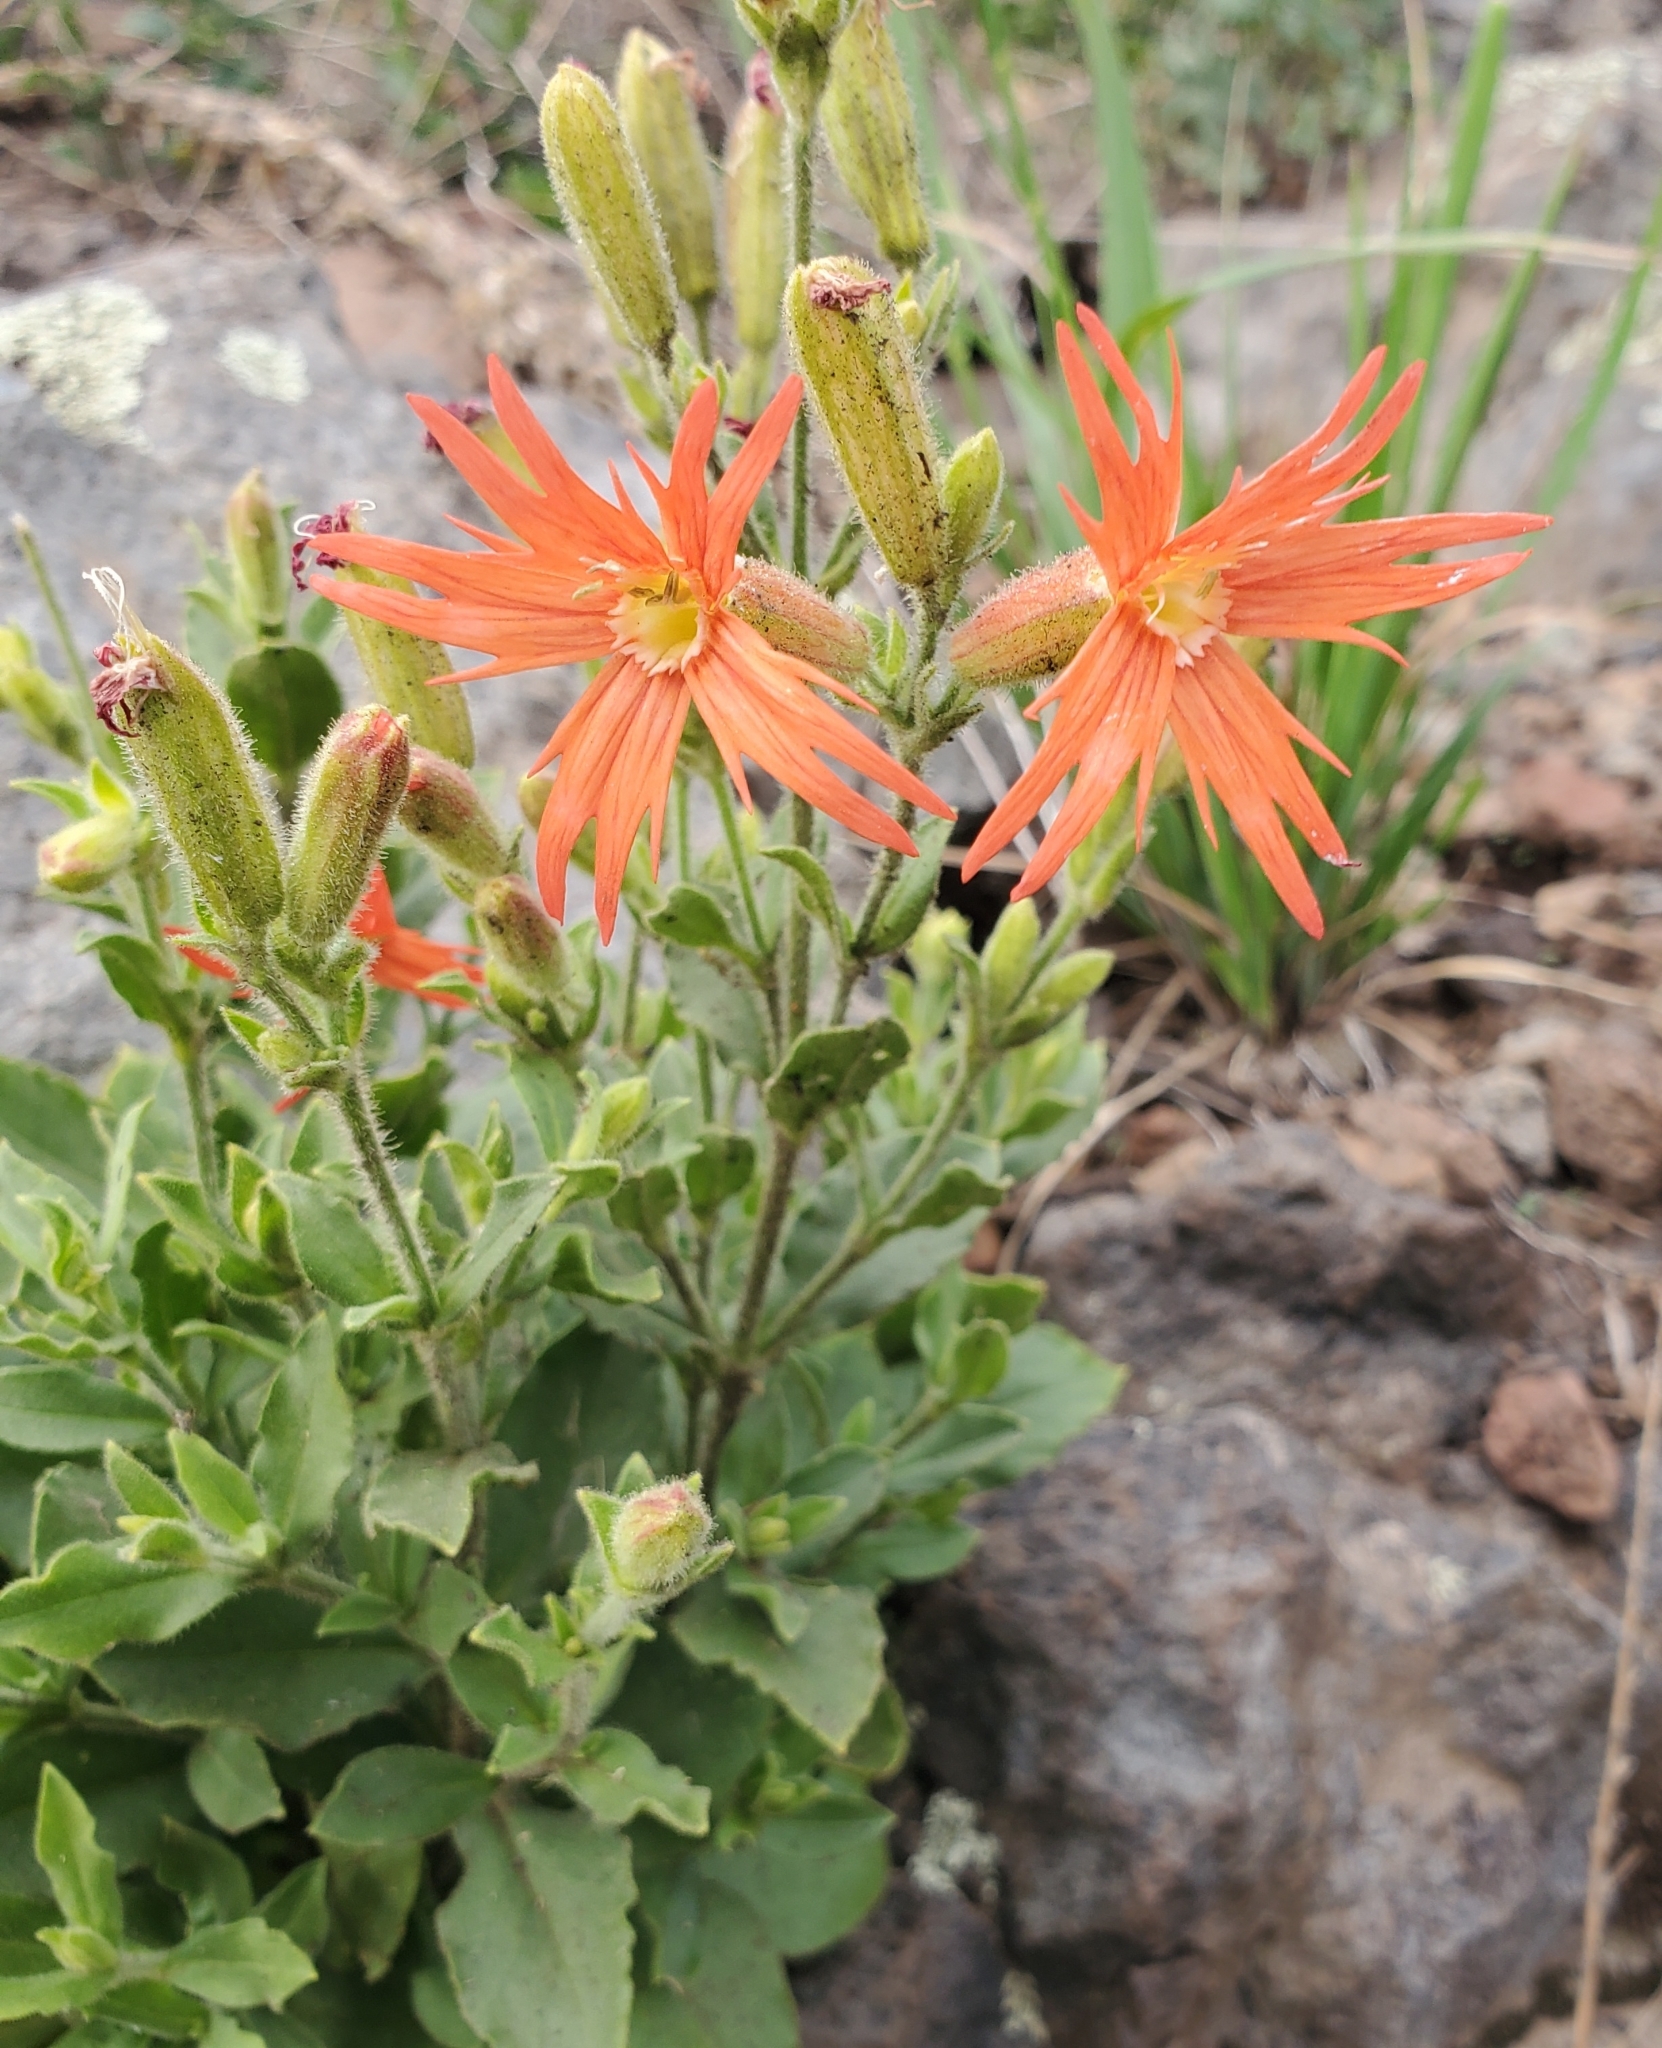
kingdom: Plantae
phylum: Tracheophyta
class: Magnoliopsida
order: Caryophyllales
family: Caryophyllaceae
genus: Silene
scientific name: Silene laciniata
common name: Indian-pink
